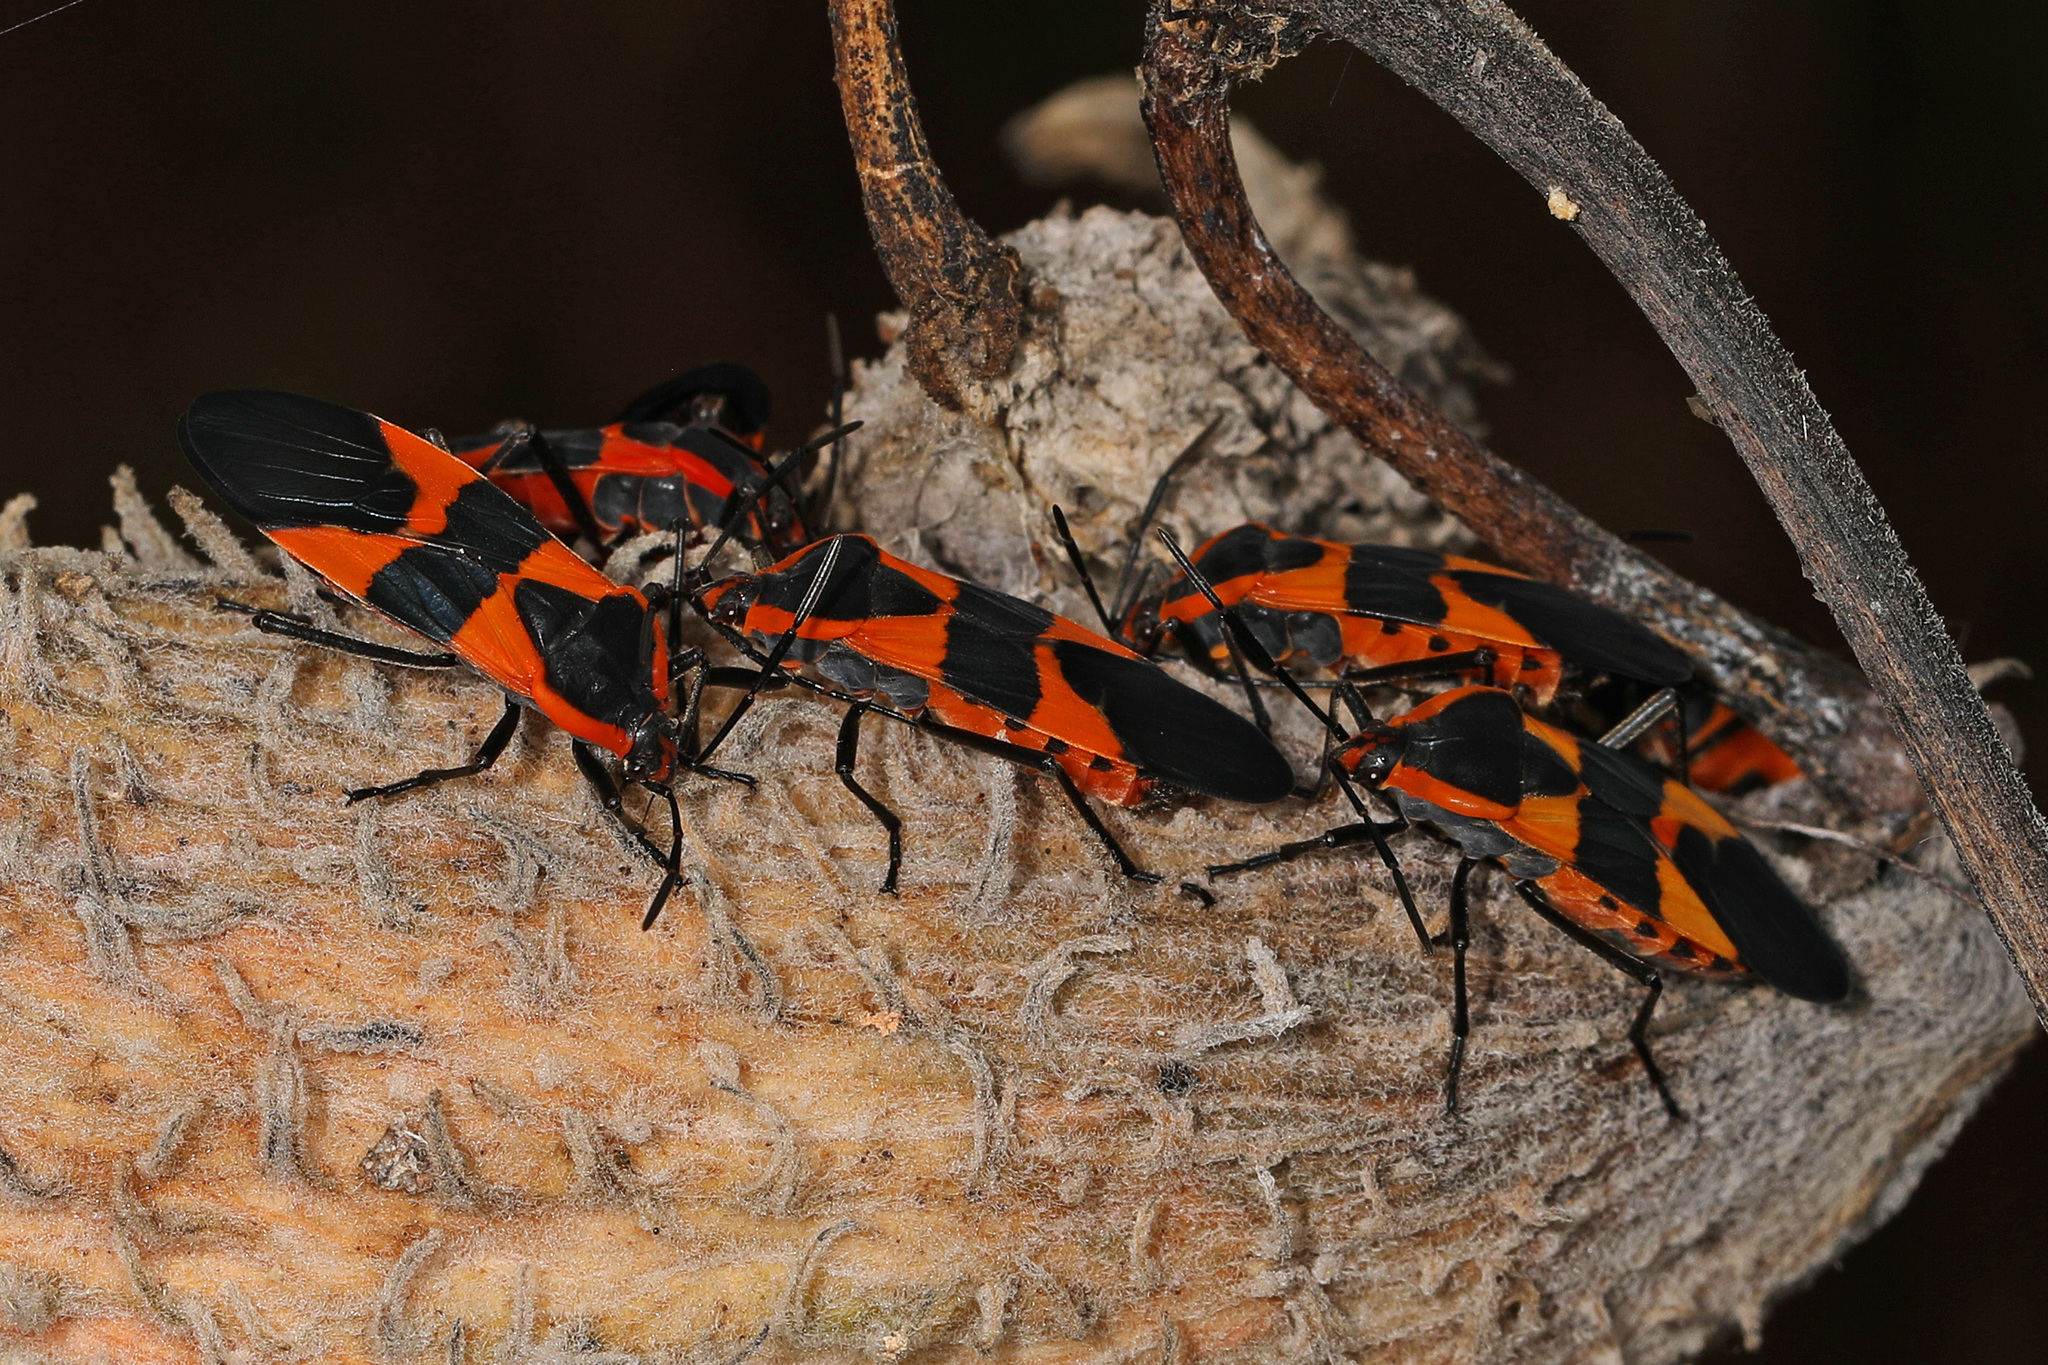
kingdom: Animalia
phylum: Arthropoda
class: Insecta
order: Hemiptera
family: Lygaeidae
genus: Oncopeltus
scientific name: Oncopeltus fasciatus
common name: Large milkweed bug
